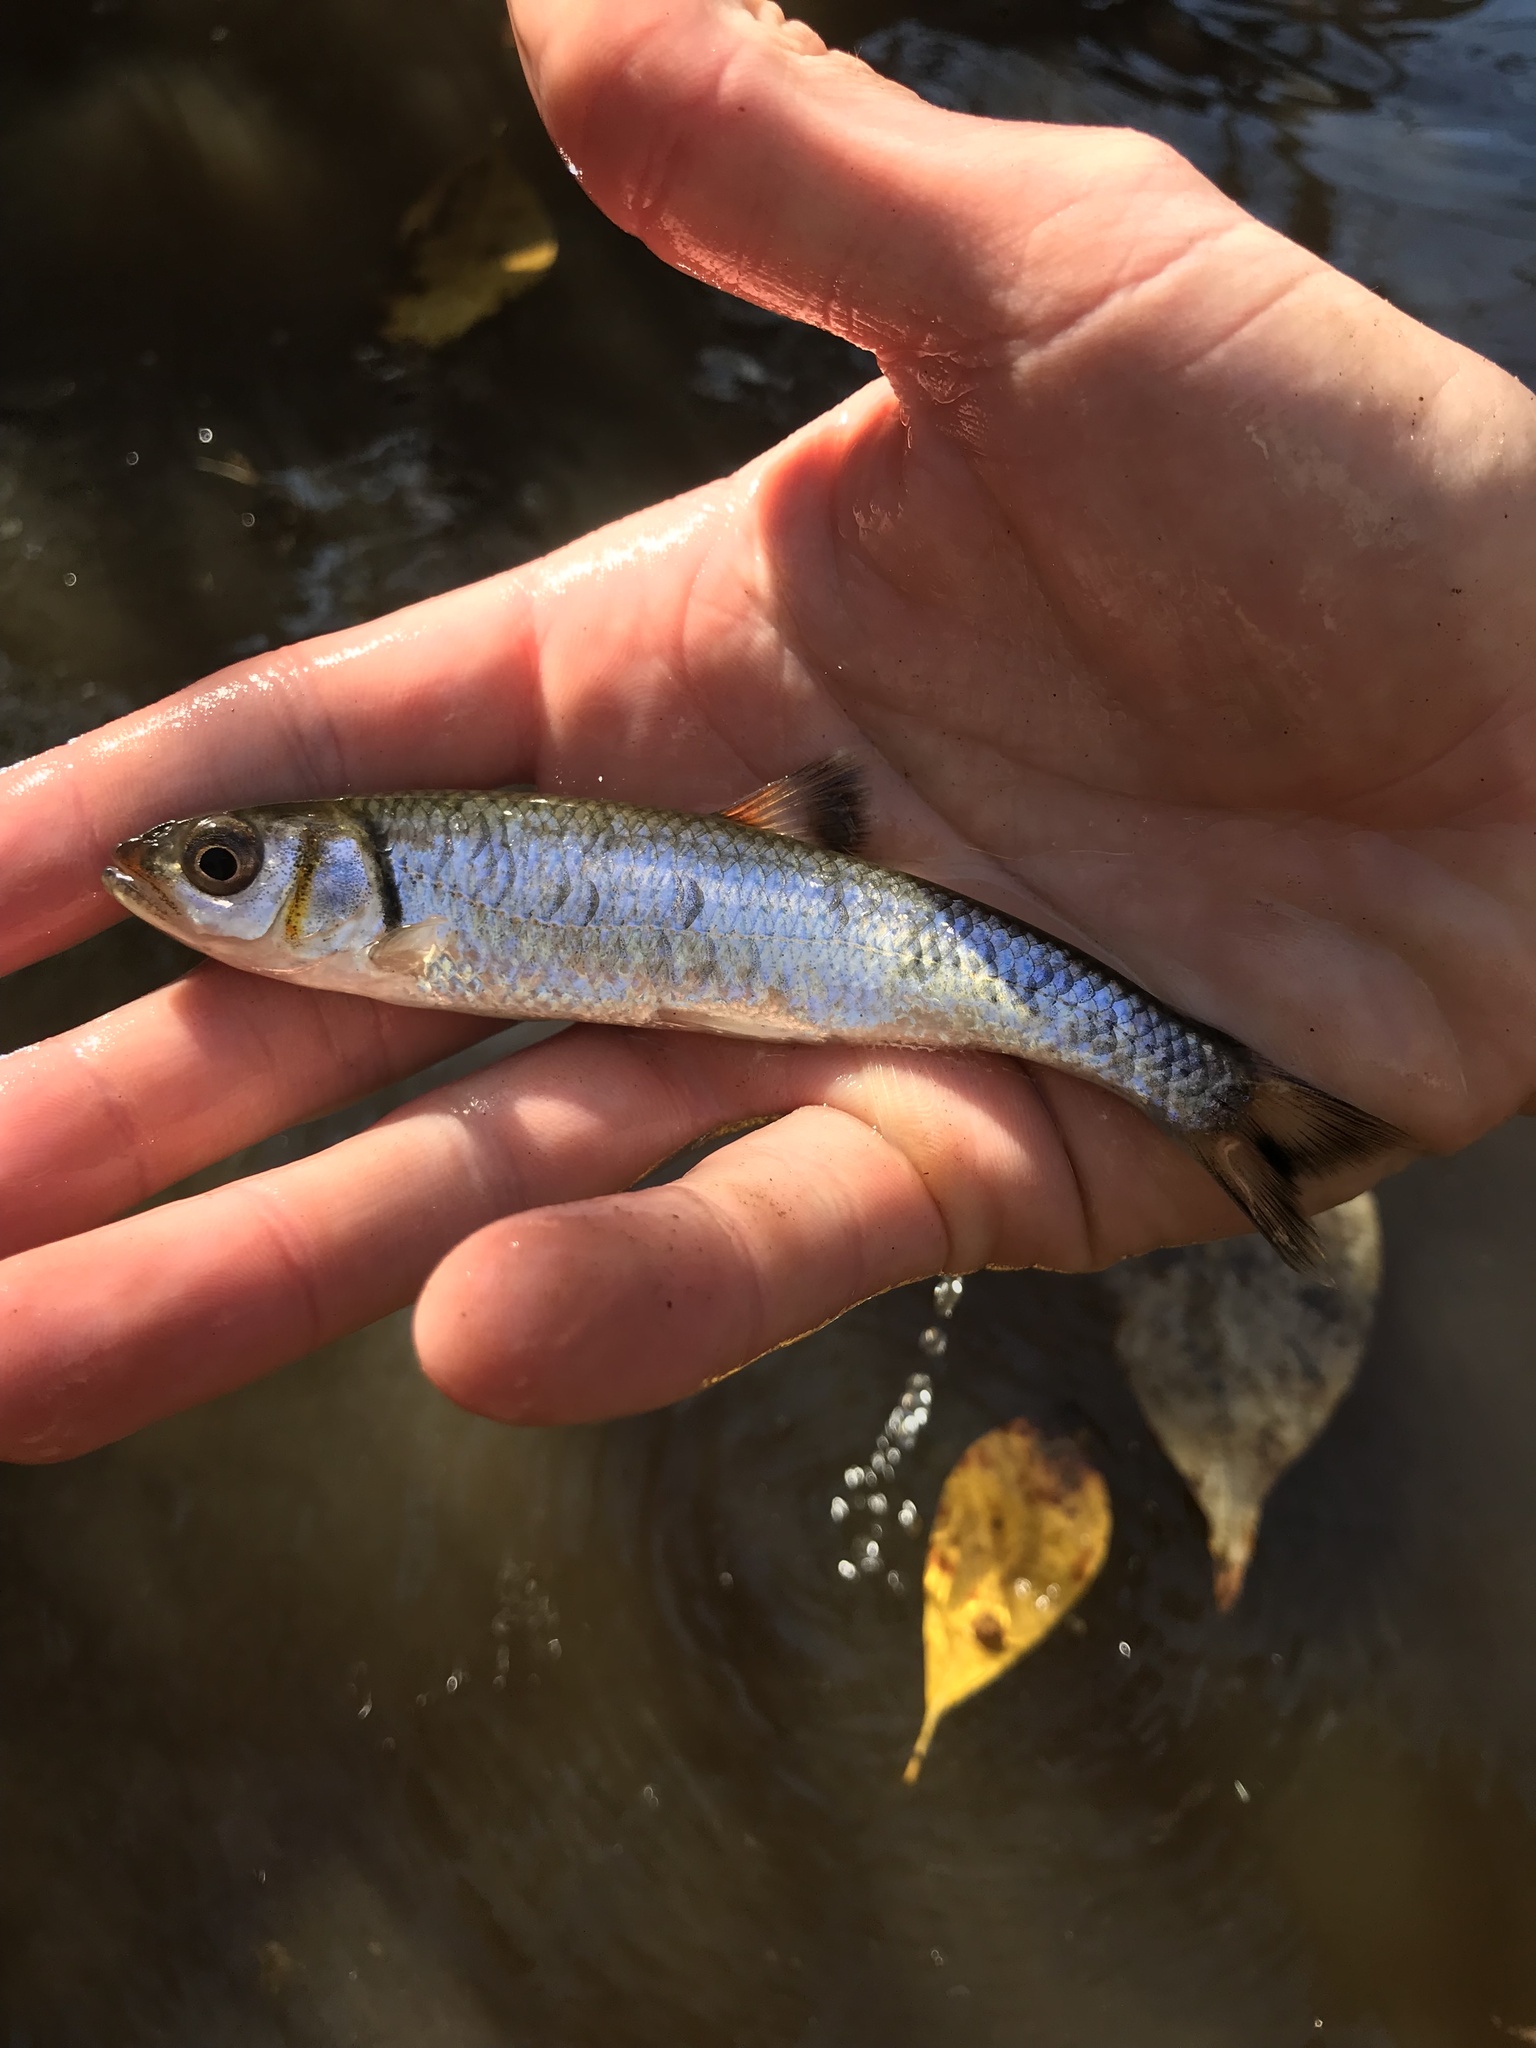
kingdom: Animalia
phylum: Chordata
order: Cypriniformes
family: Cyprinidae
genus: Luxilus
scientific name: Luxilus
